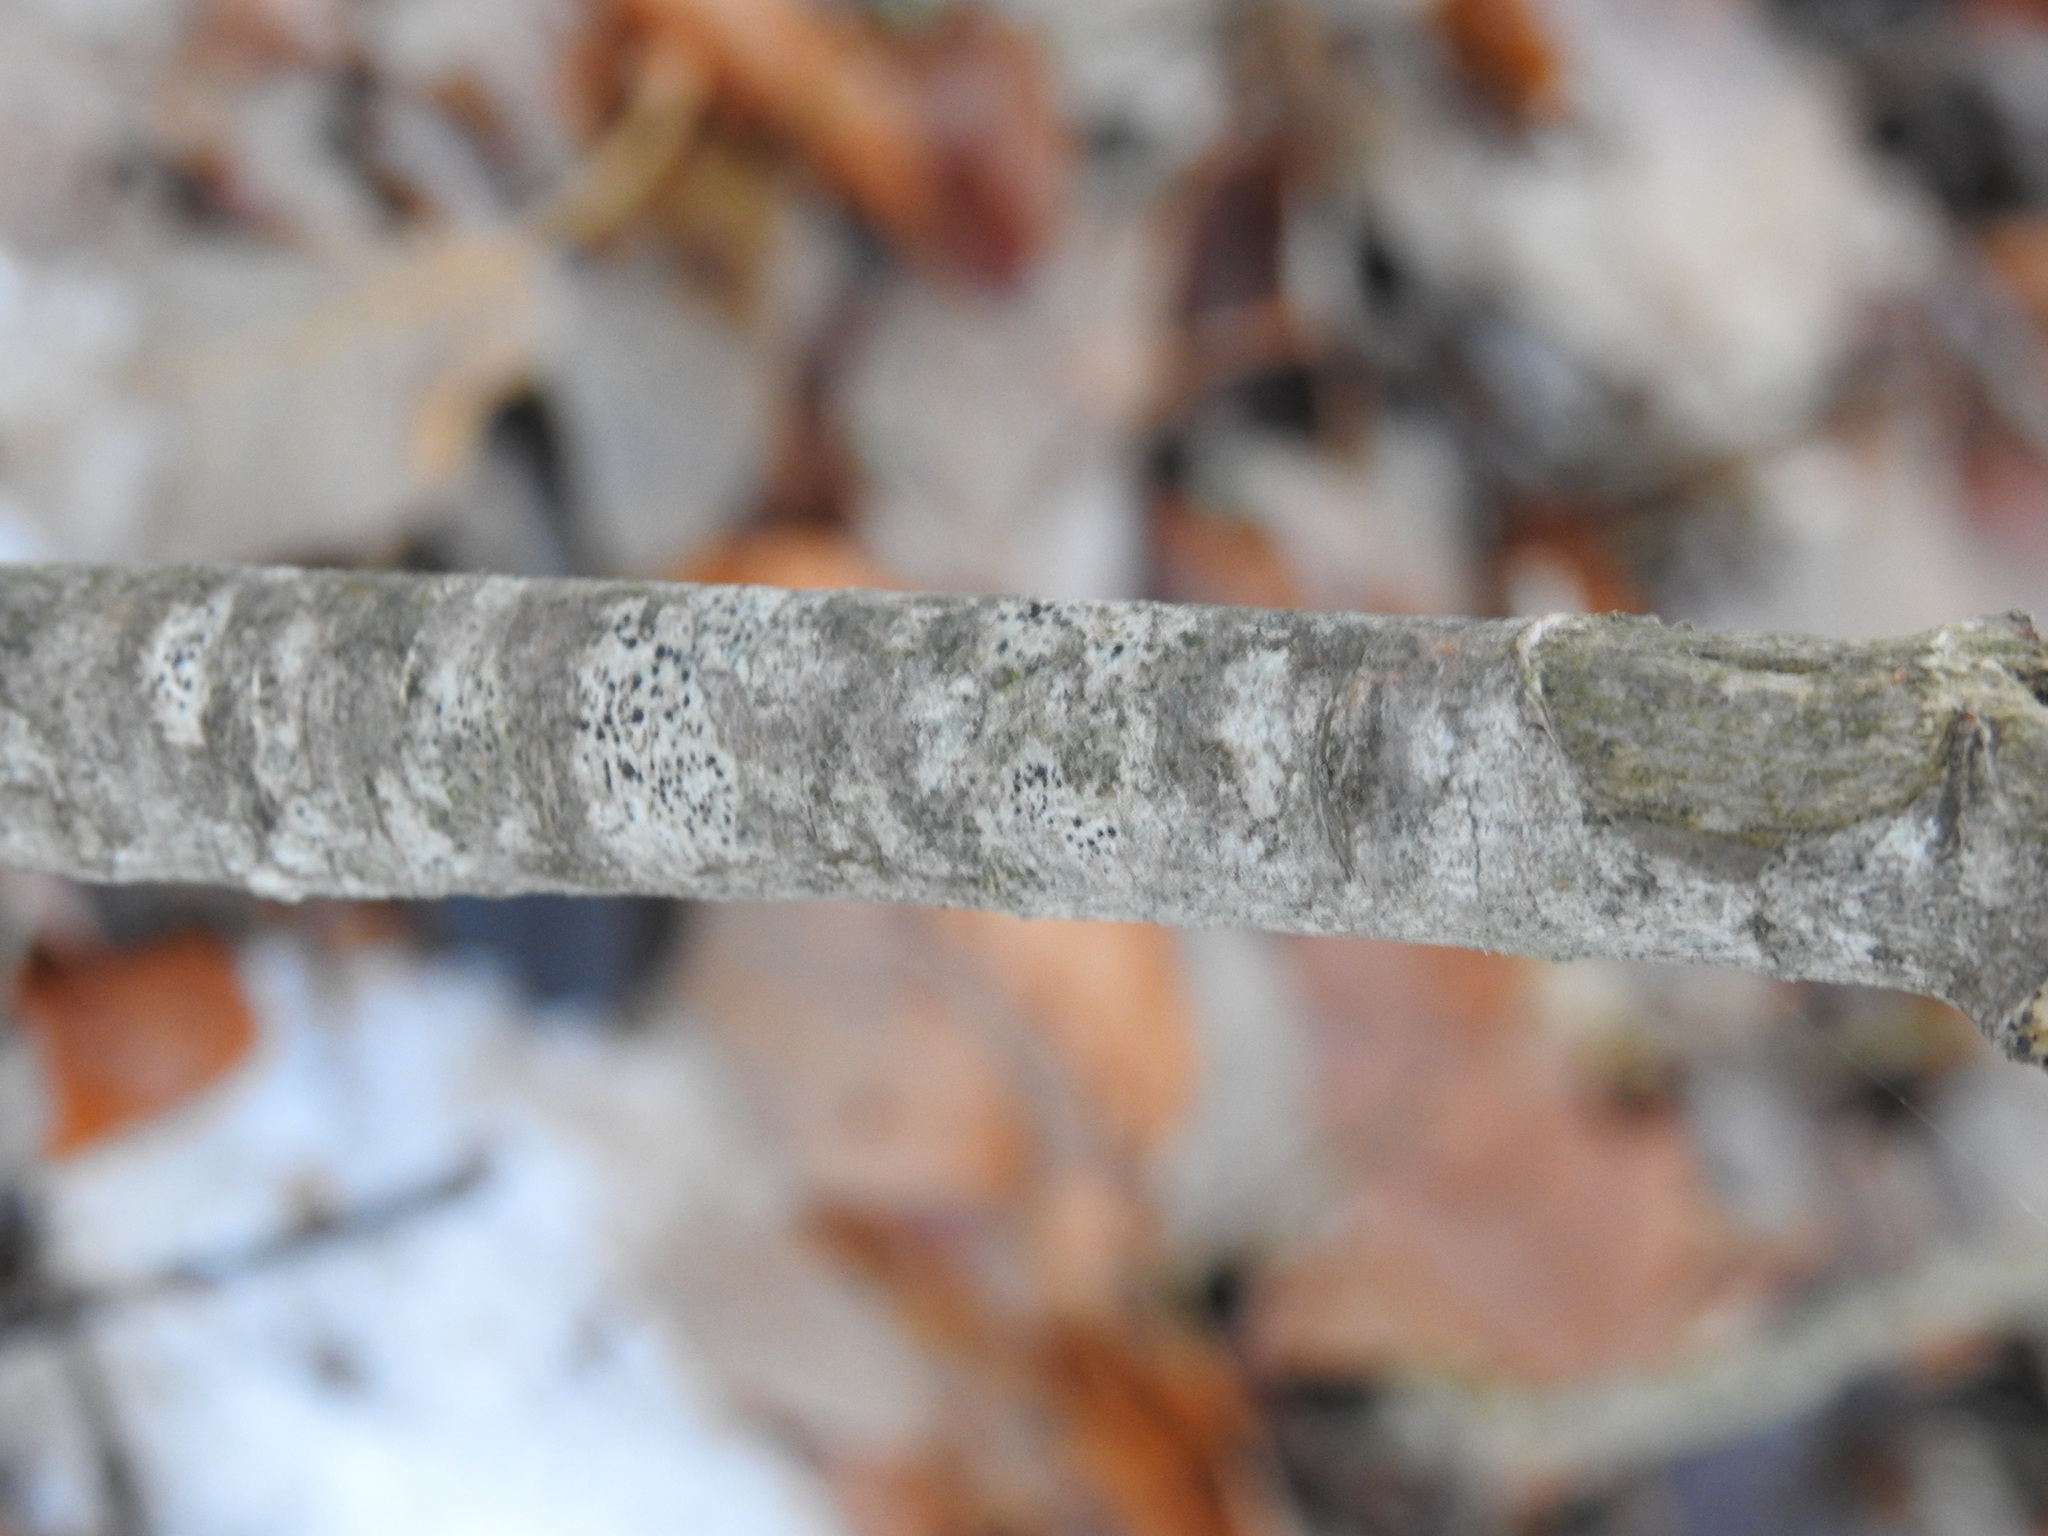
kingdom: Plantae
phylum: Tracheophyta
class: Magnoliopsida
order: Malvales
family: Thymelaeaceae
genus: Daphne
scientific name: Daphne laureola
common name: Spurge-laurel
